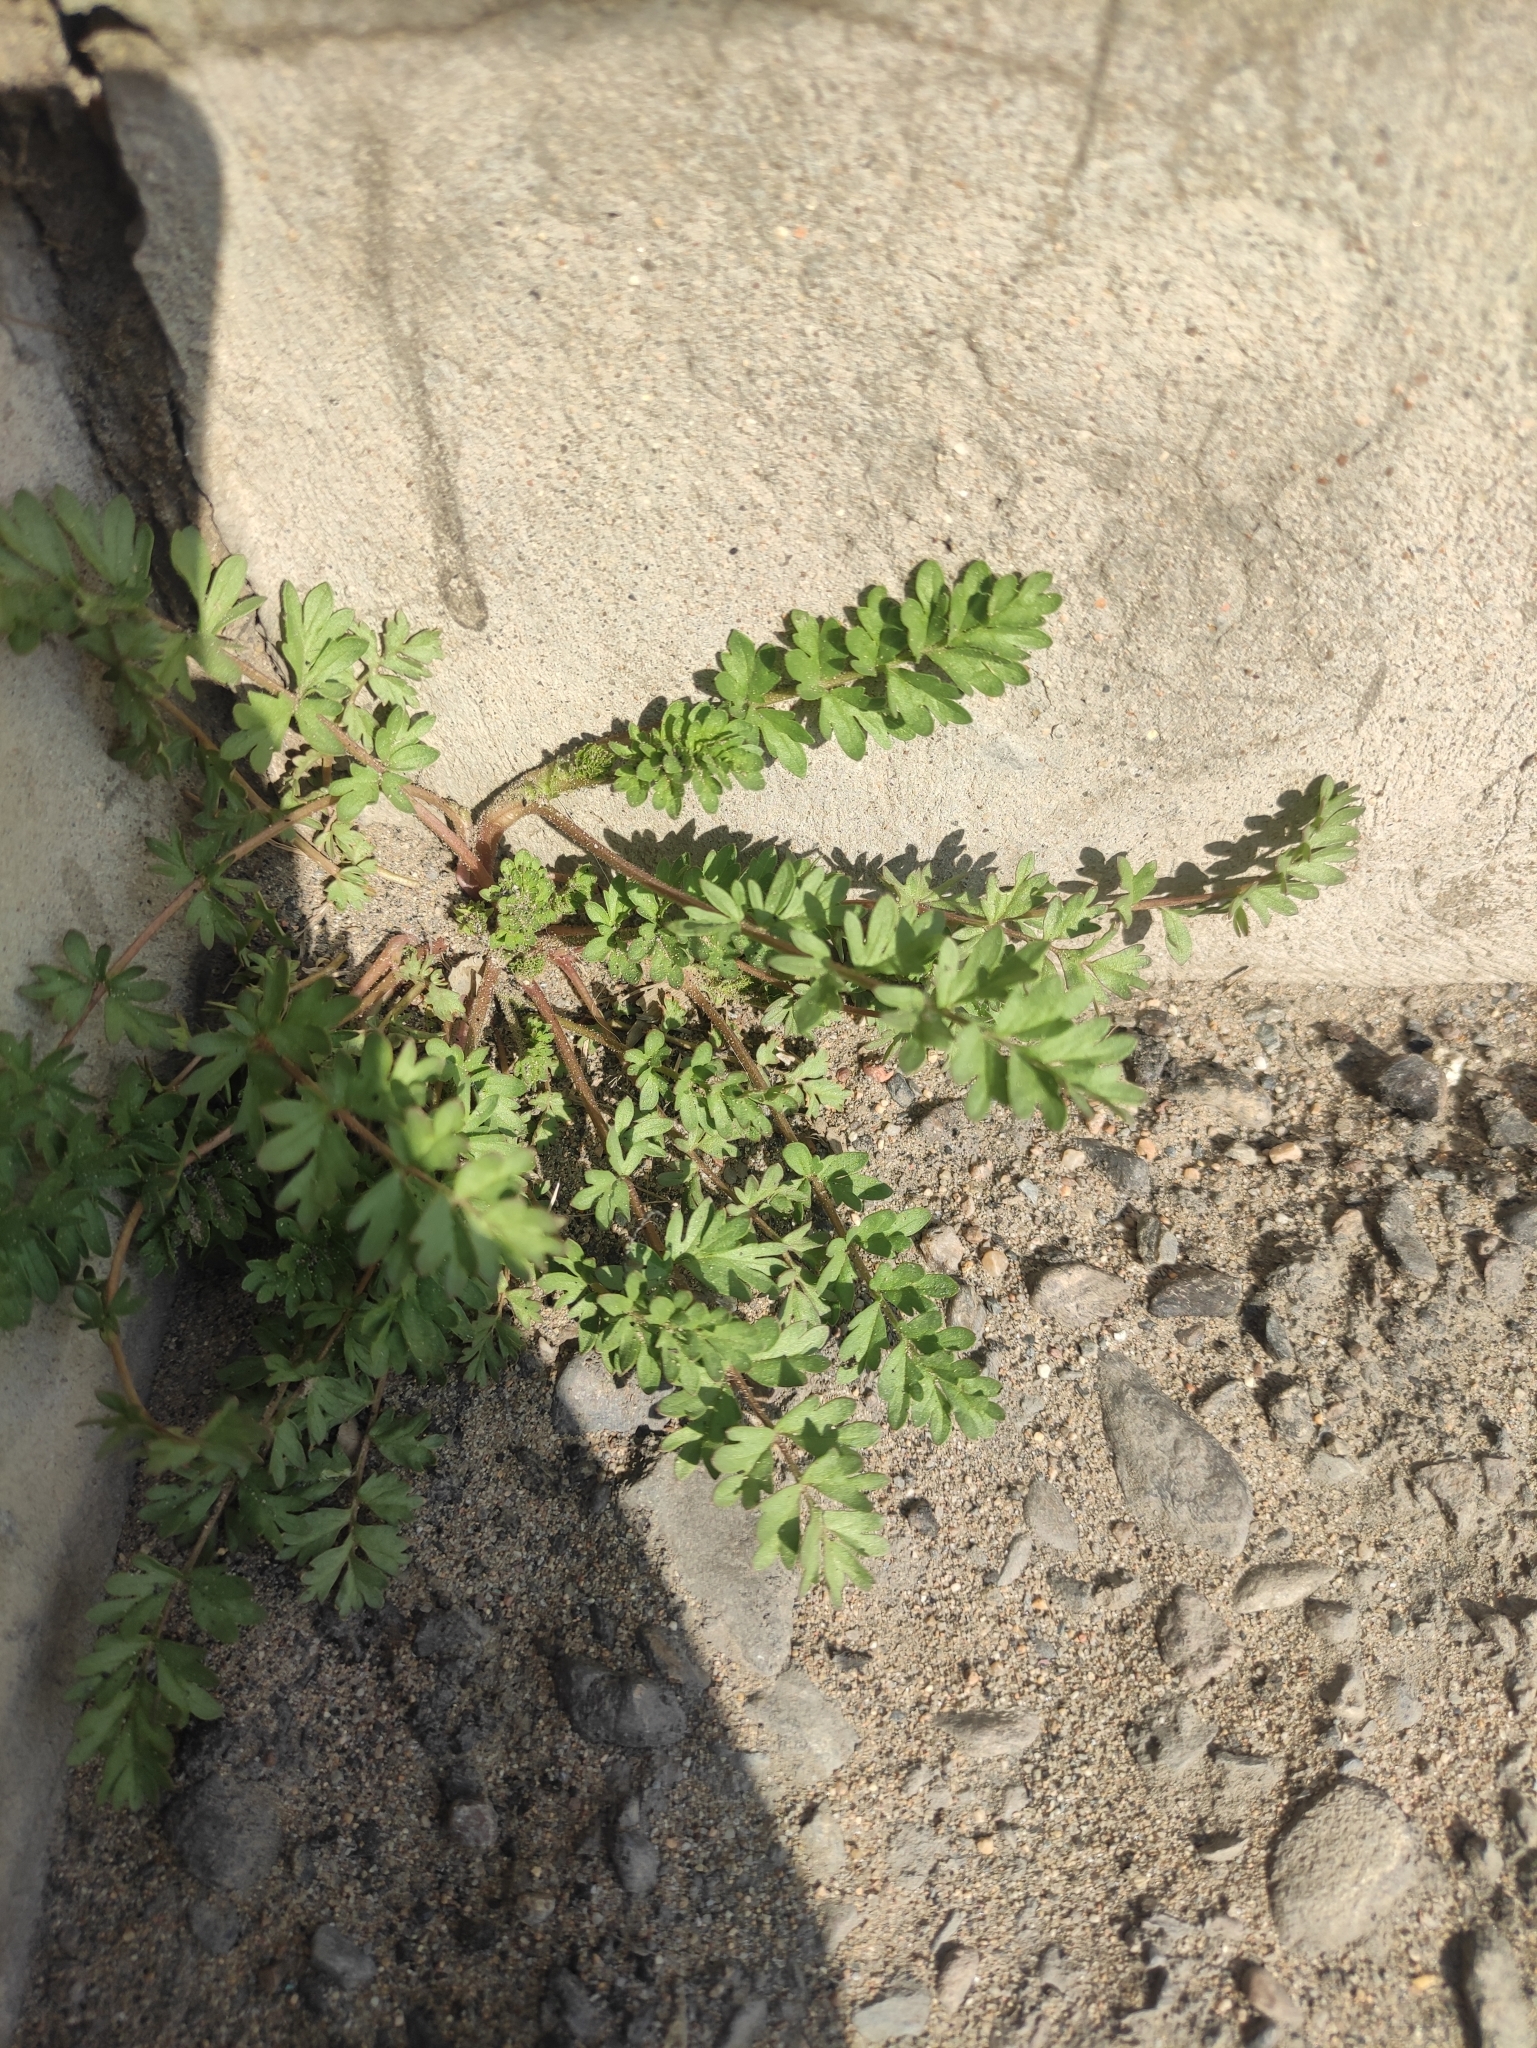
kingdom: Plantae
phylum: Tracheophyta
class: Magnoliopsida
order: Rosales
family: Rosaceae
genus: Potentilla
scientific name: Potentilla supina
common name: Prostrate cinquefoil
